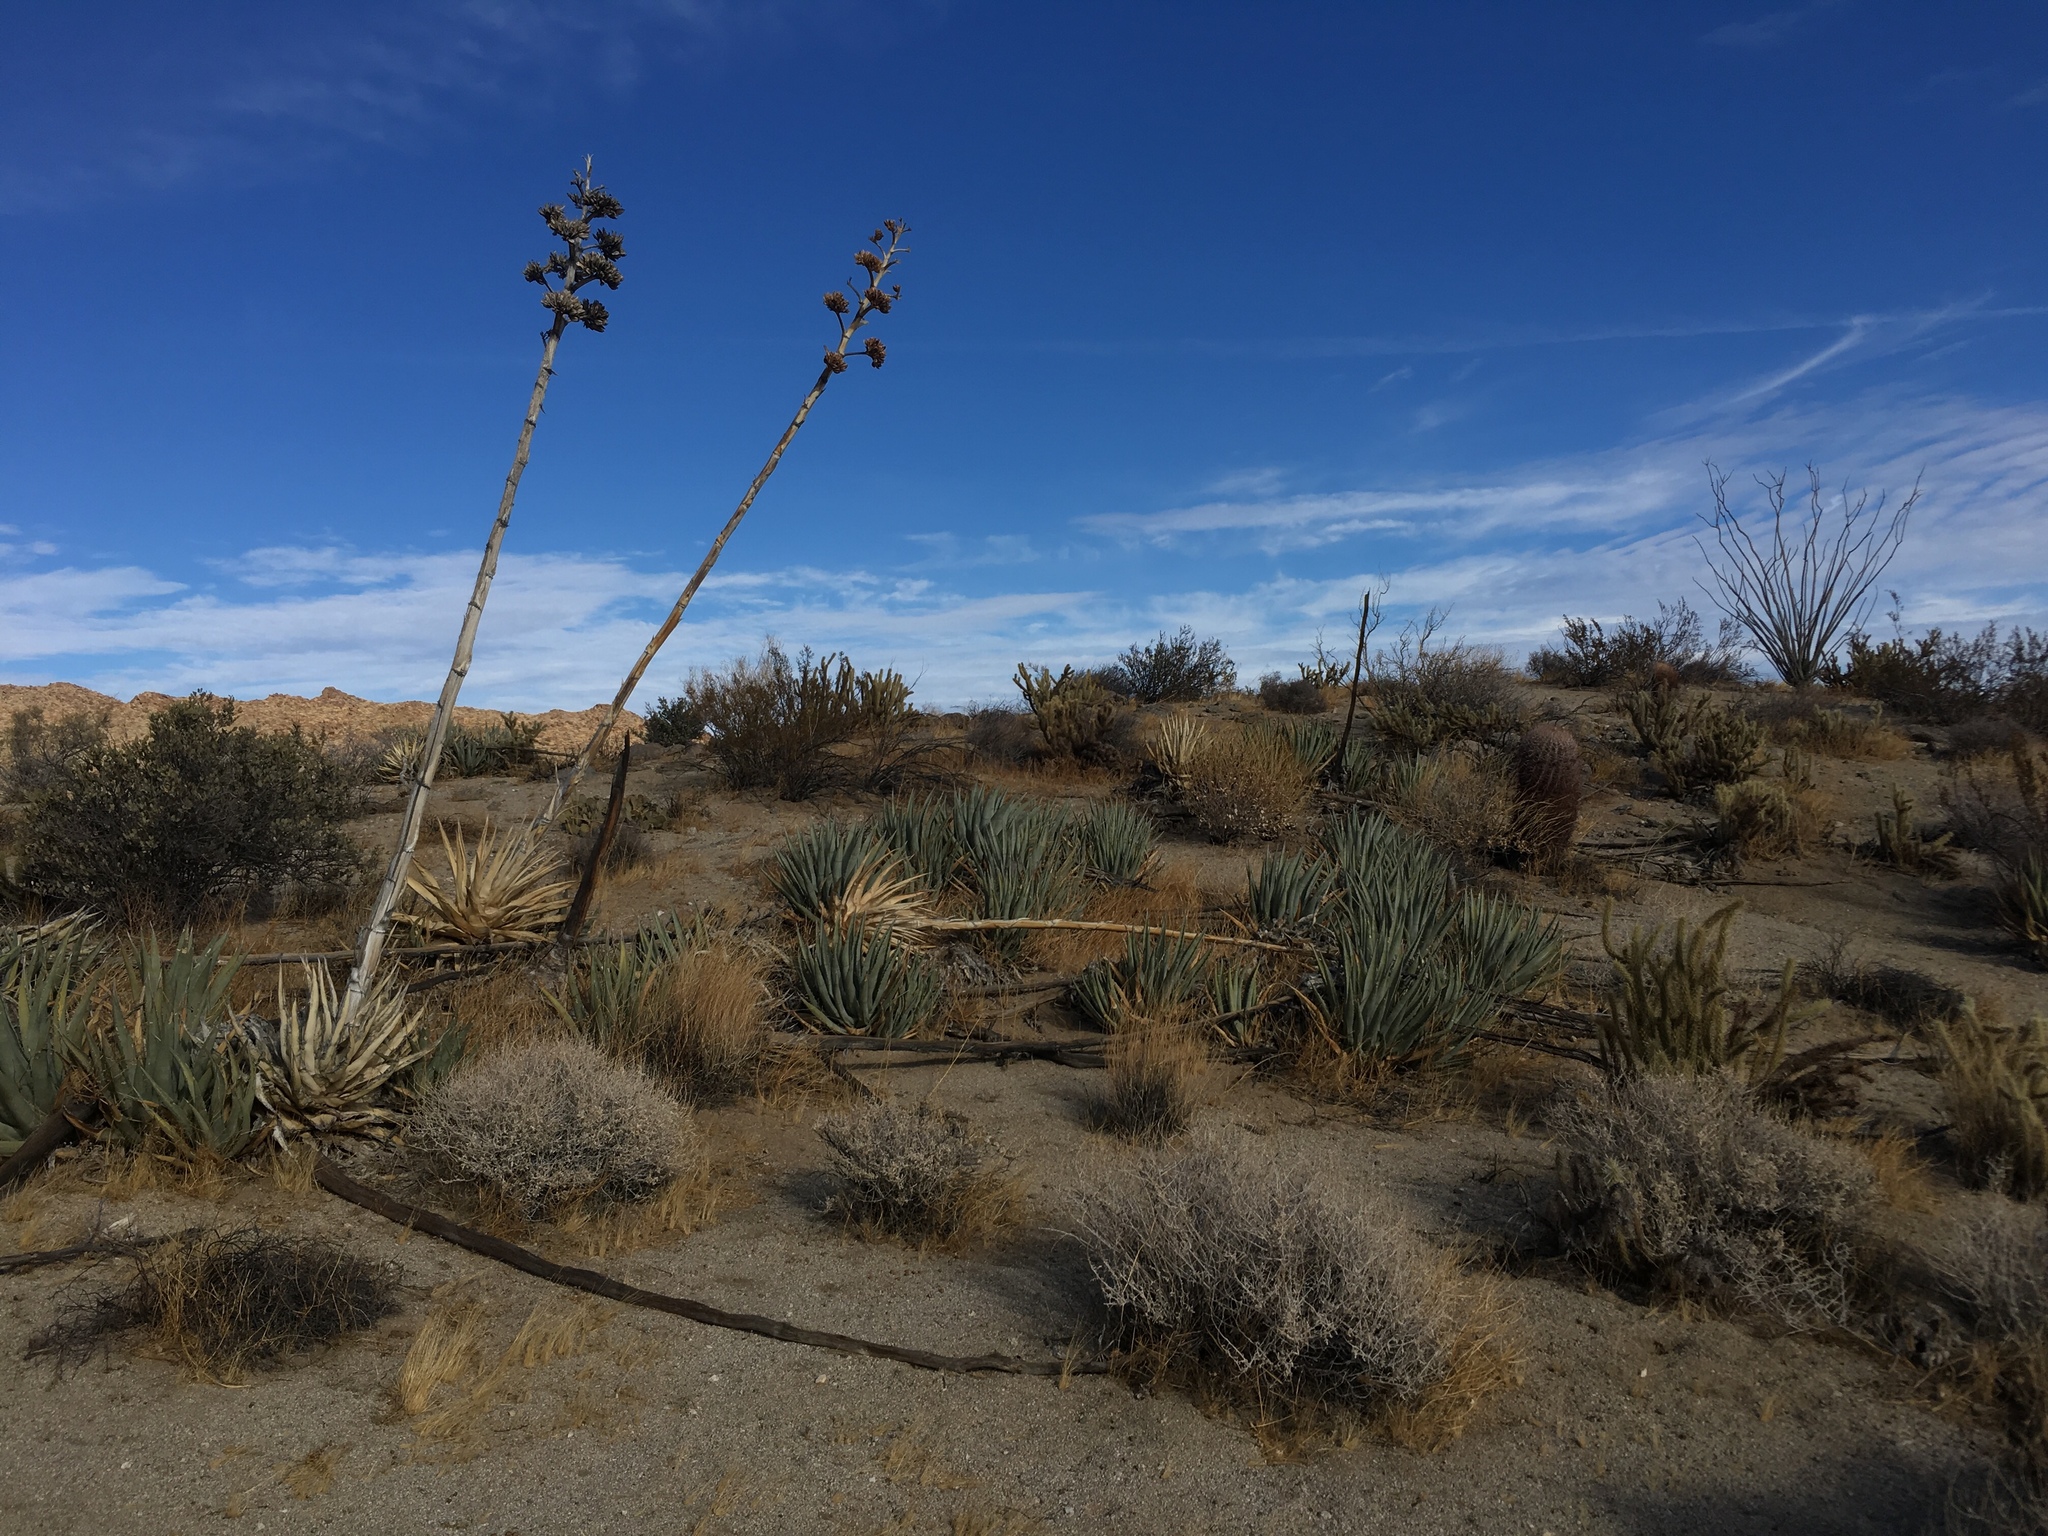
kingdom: Plantae
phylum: Tracheophyta
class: Liliopsida
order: Asparagales
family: Asparagaceae
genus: Agave
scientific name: Agave deserti
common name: Desert agave
